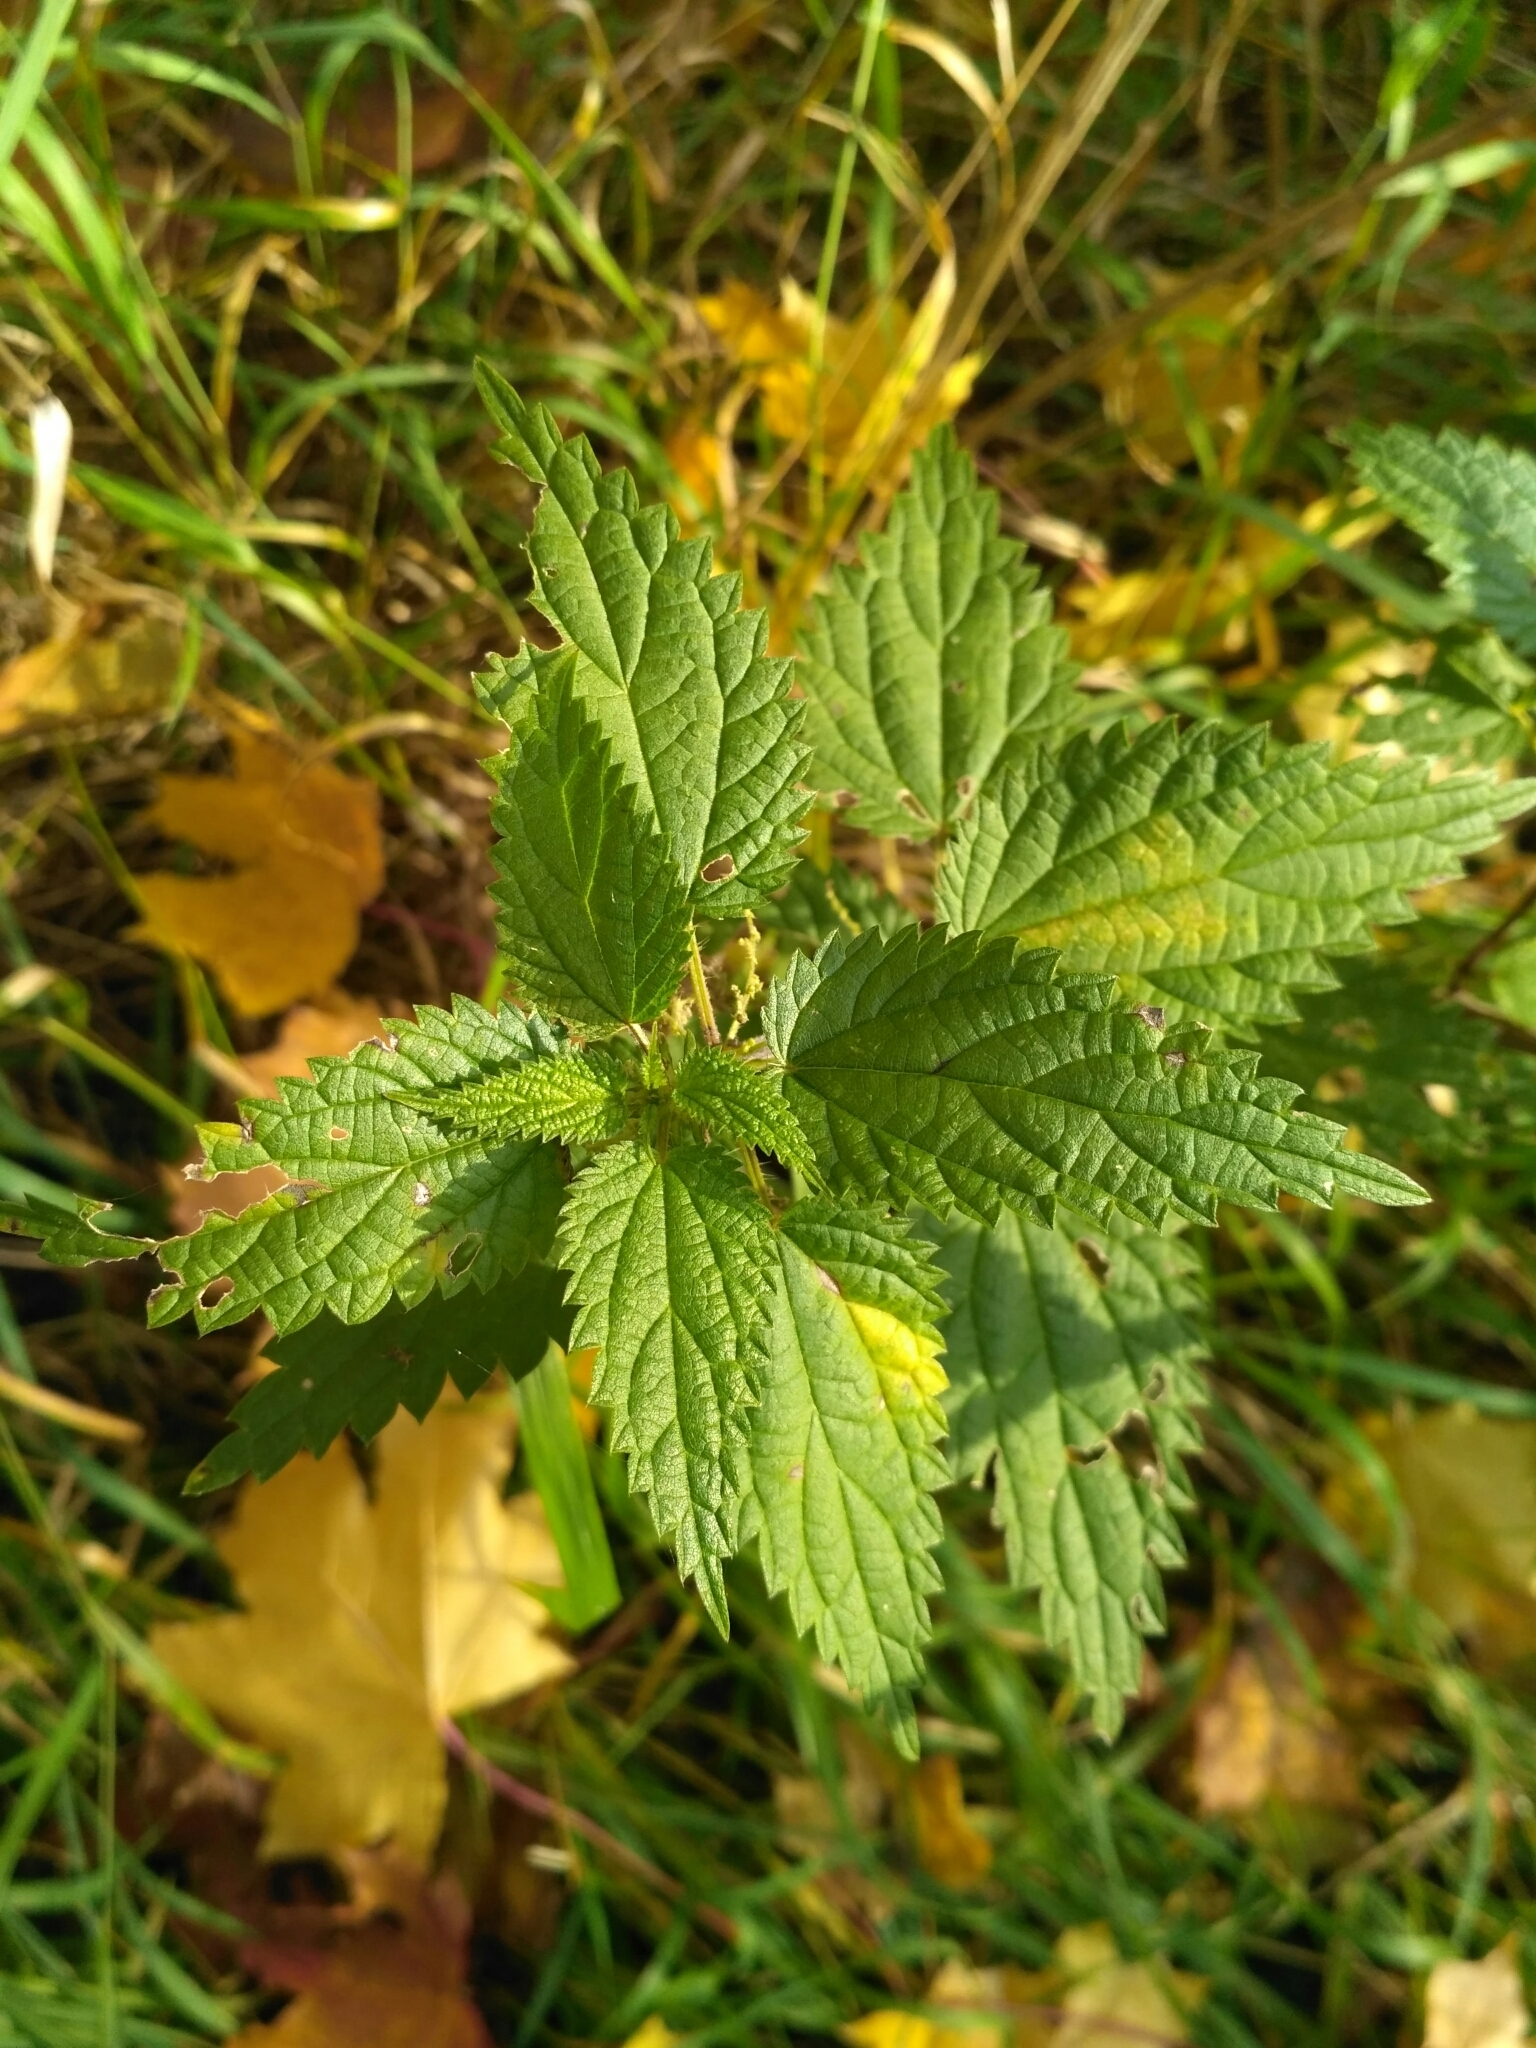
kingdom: Plantae
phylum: Tracheophyta
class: Magnoliopsida
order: Rosales
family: Urticaceae
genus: Urtica
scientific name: Urtica dioica
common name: Common nettle
